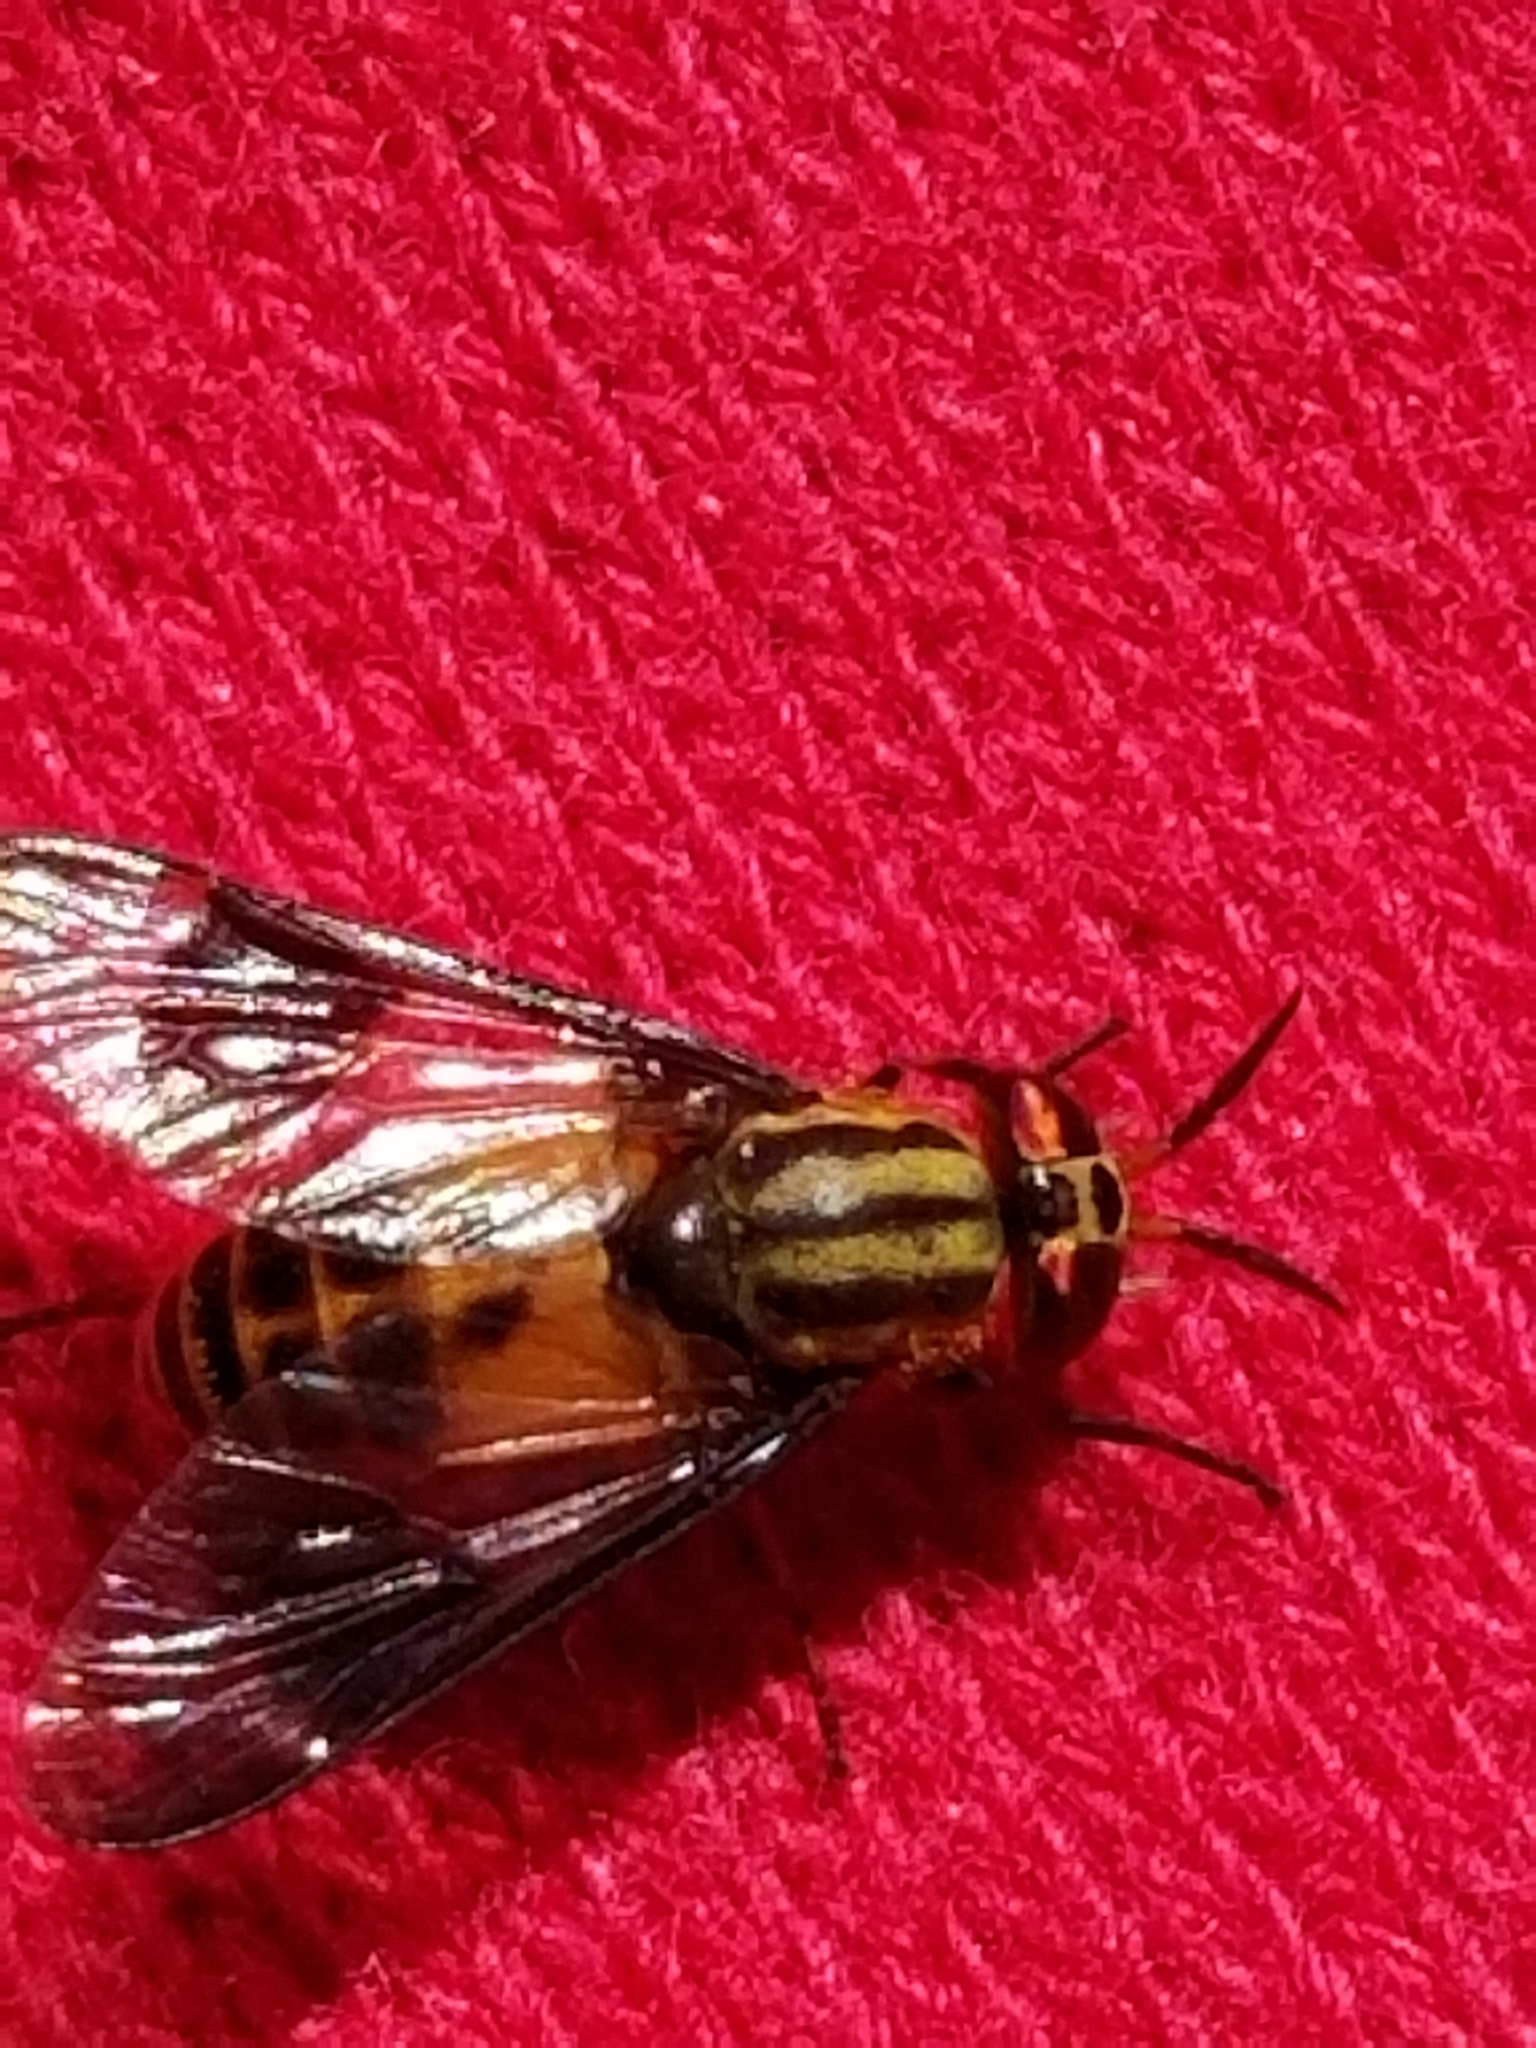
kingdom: Animalia
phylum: Arthropoda
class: Insecta
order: Diptera
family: Tabanidae
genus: Chrysops
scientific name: Chrysops geminatus
